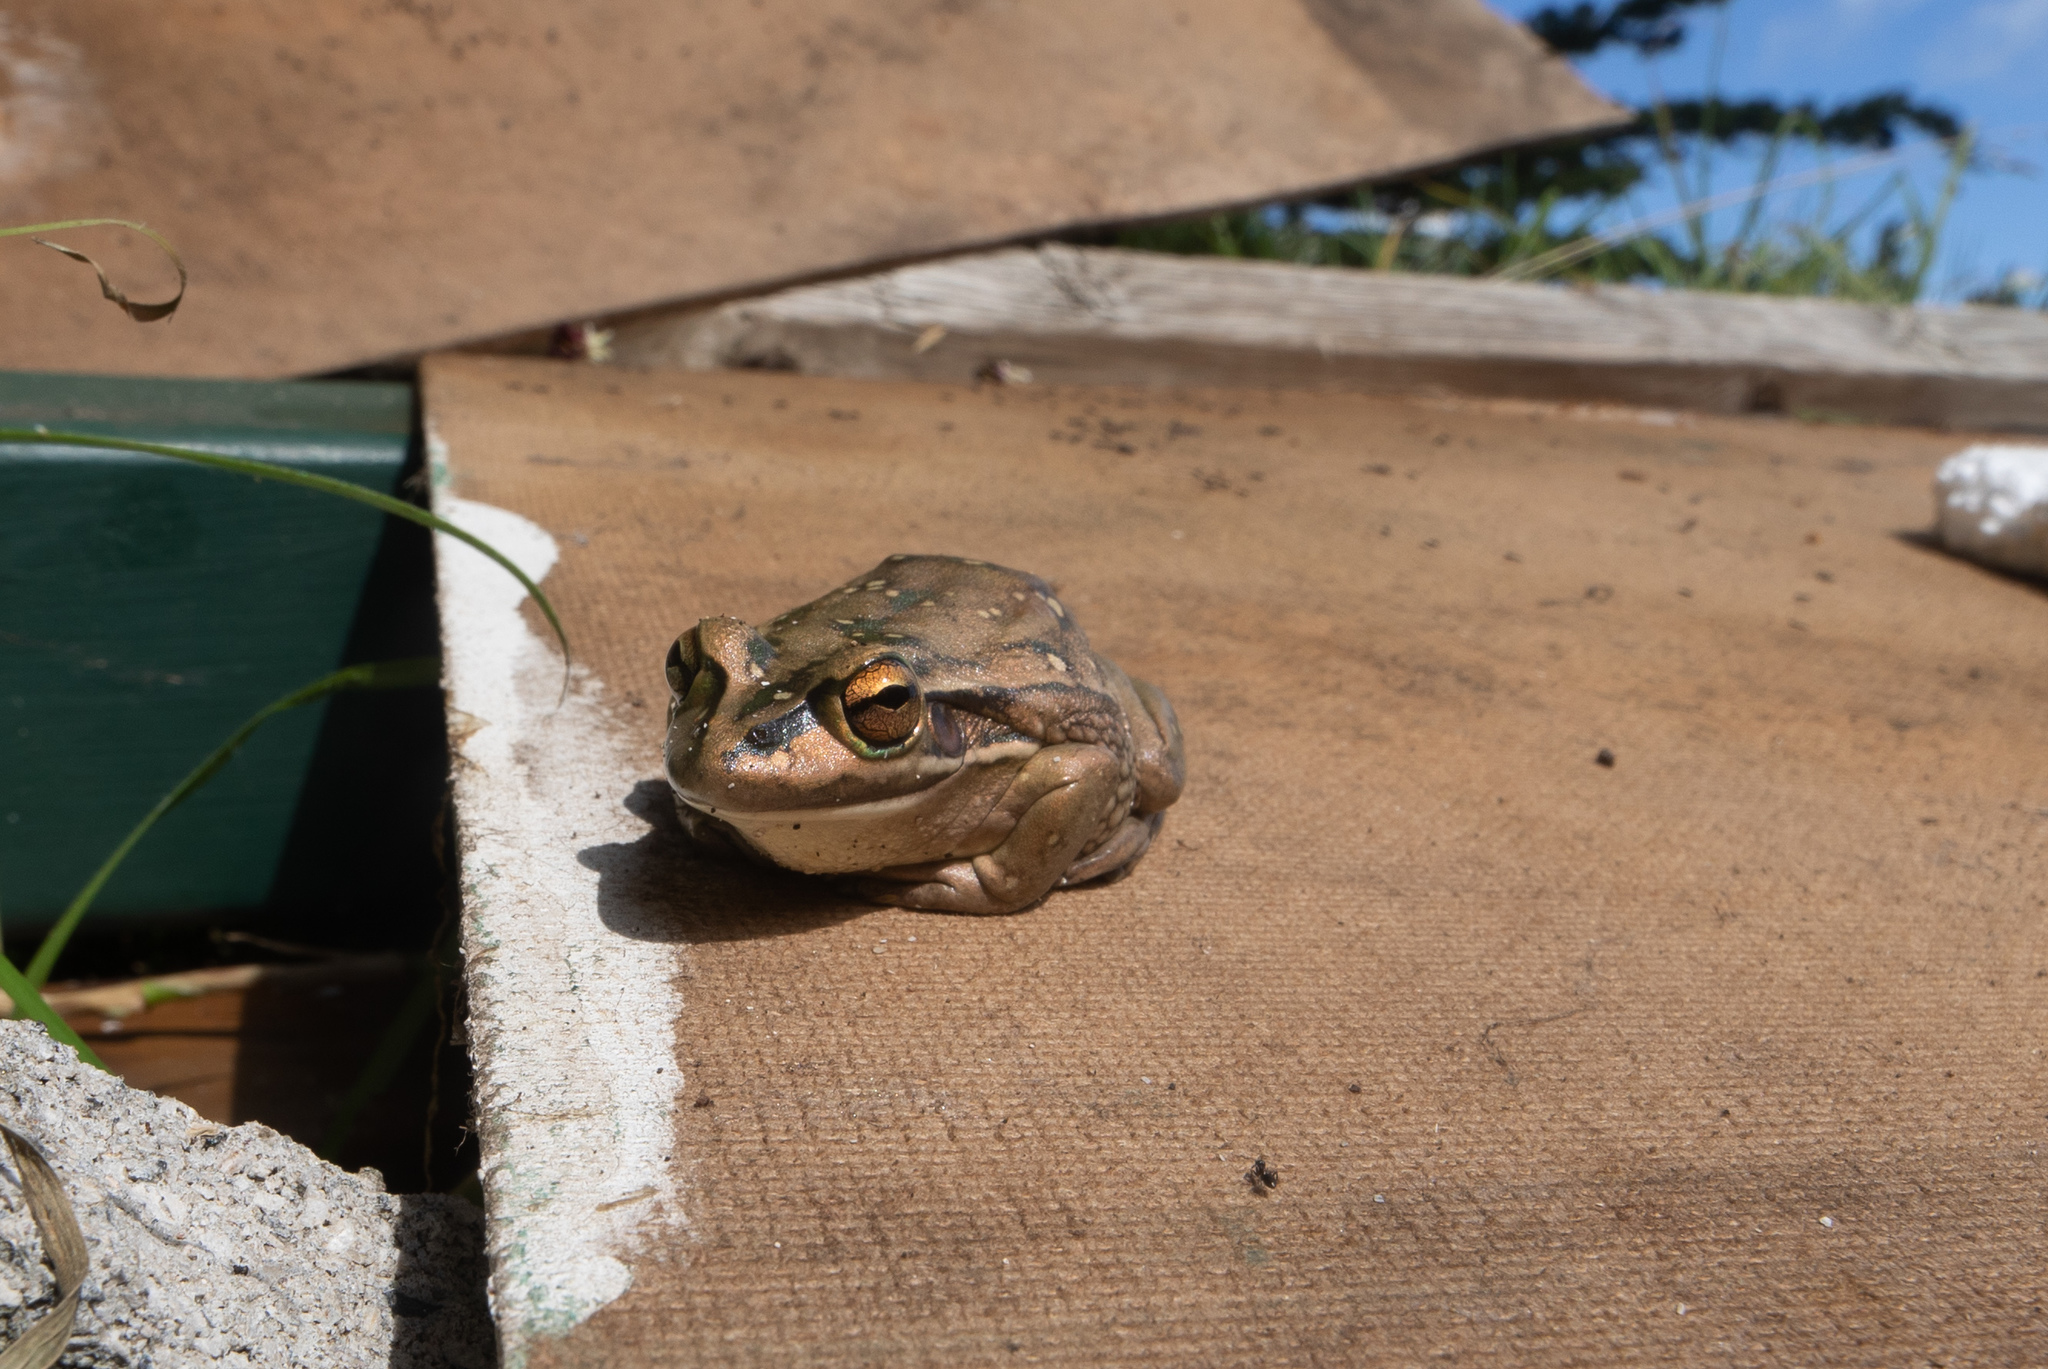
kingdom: Animalia
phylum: Chordata
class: Amphibia
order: Anura
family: Pelodryadidae
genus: Ranoidea
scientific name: Ranoidea aurea
